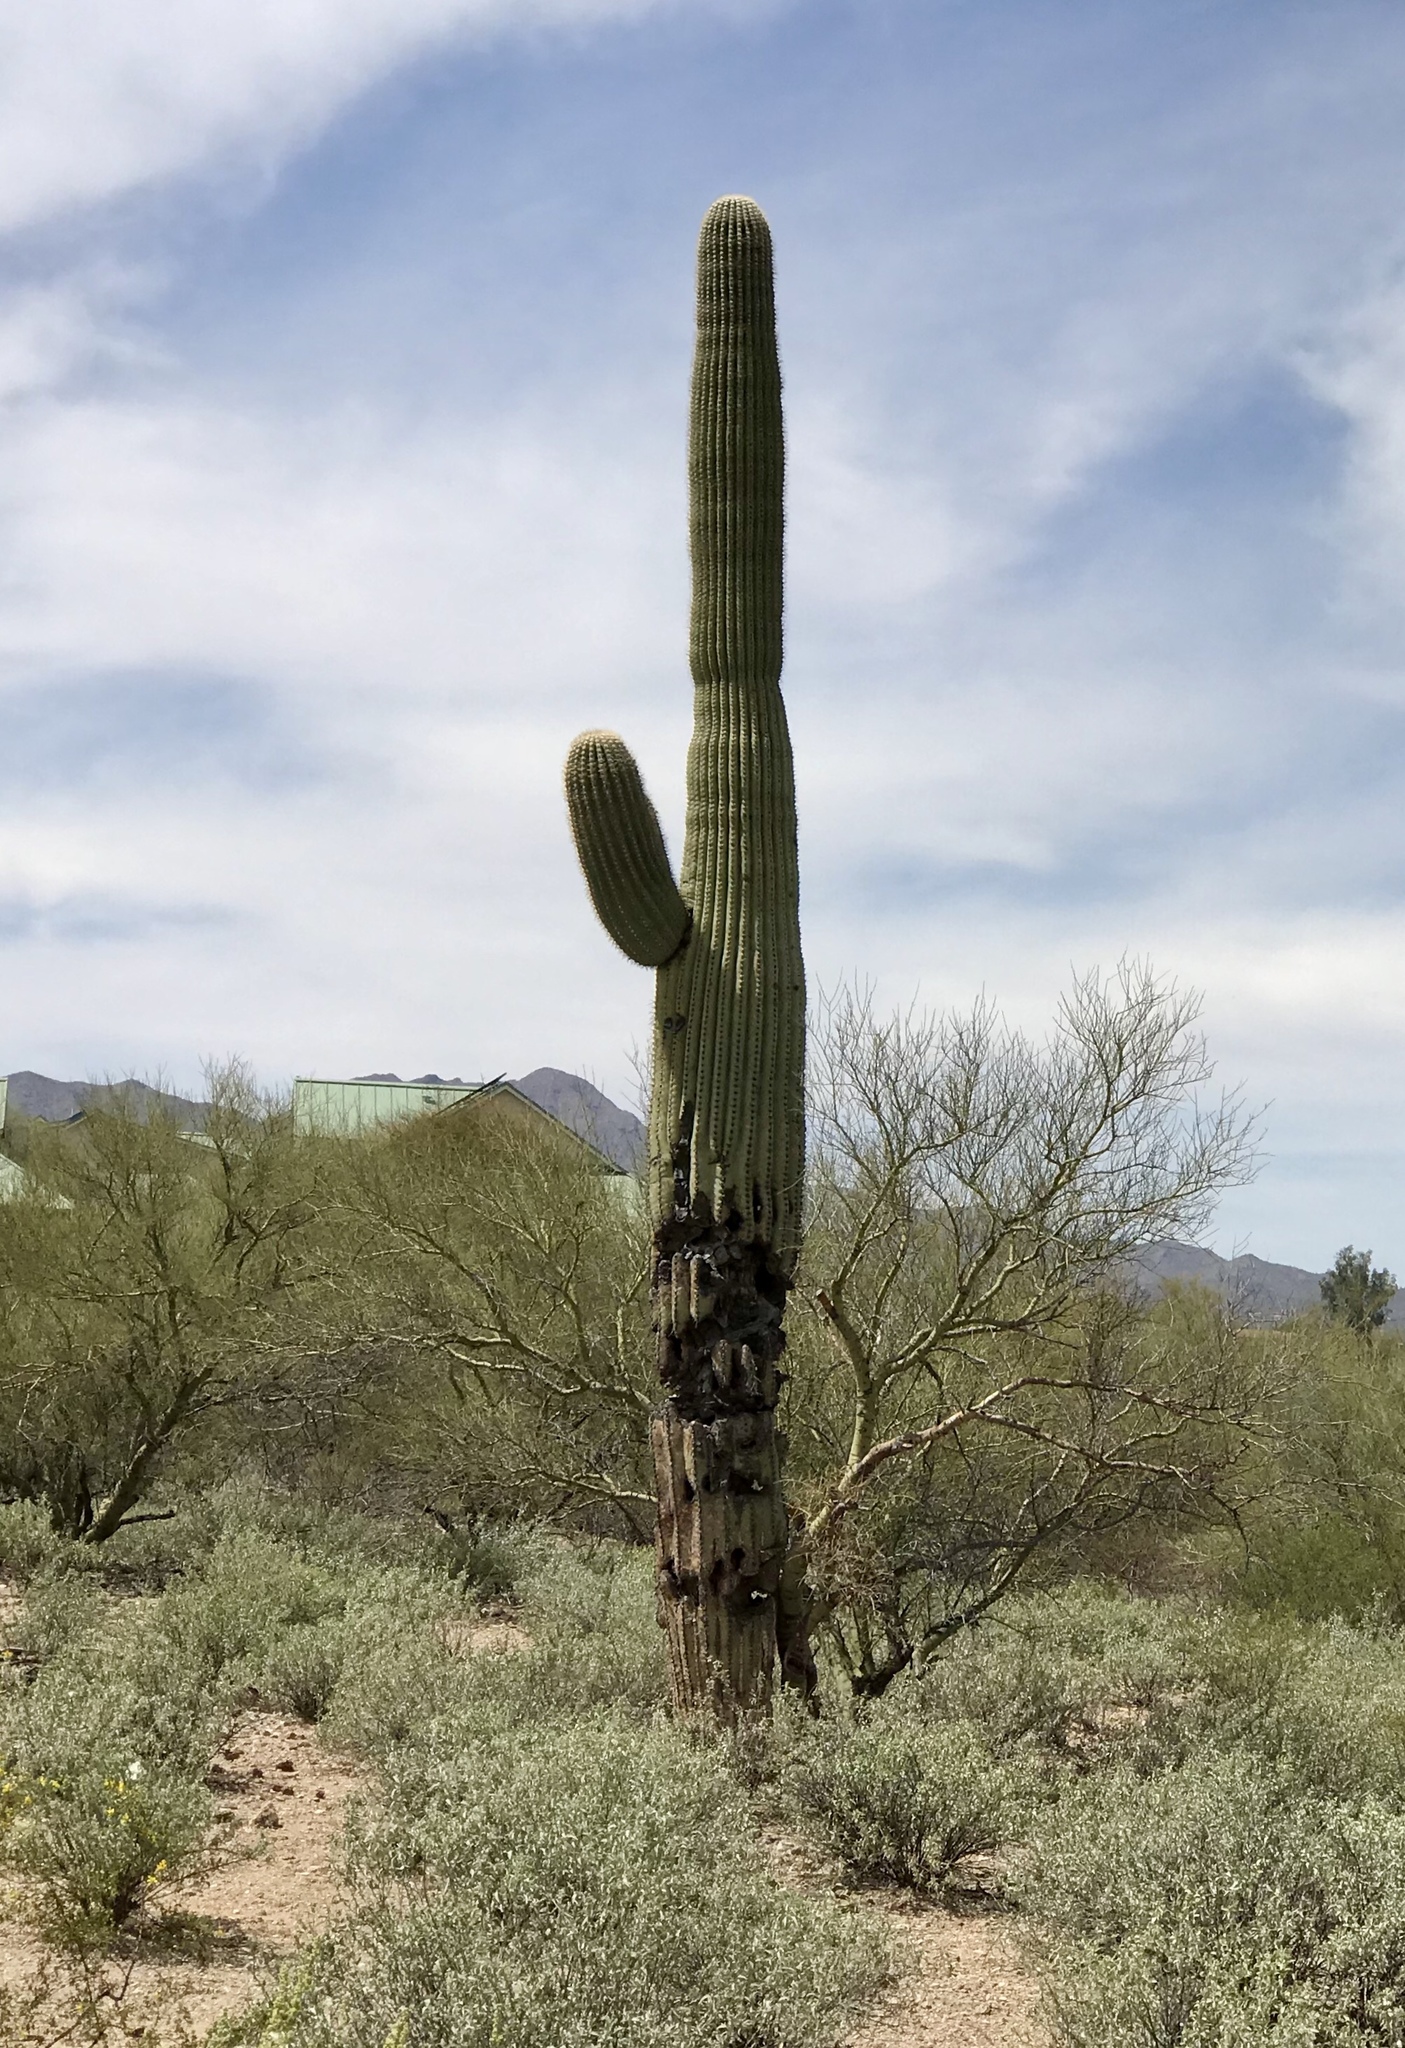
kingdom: Plantae
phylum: Tracheophyta
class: Magnoliopsida
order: Caryophyllales
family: Cactaceae
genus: Carnegiea
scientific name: Carnegiea gigantea
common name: Saguaro
